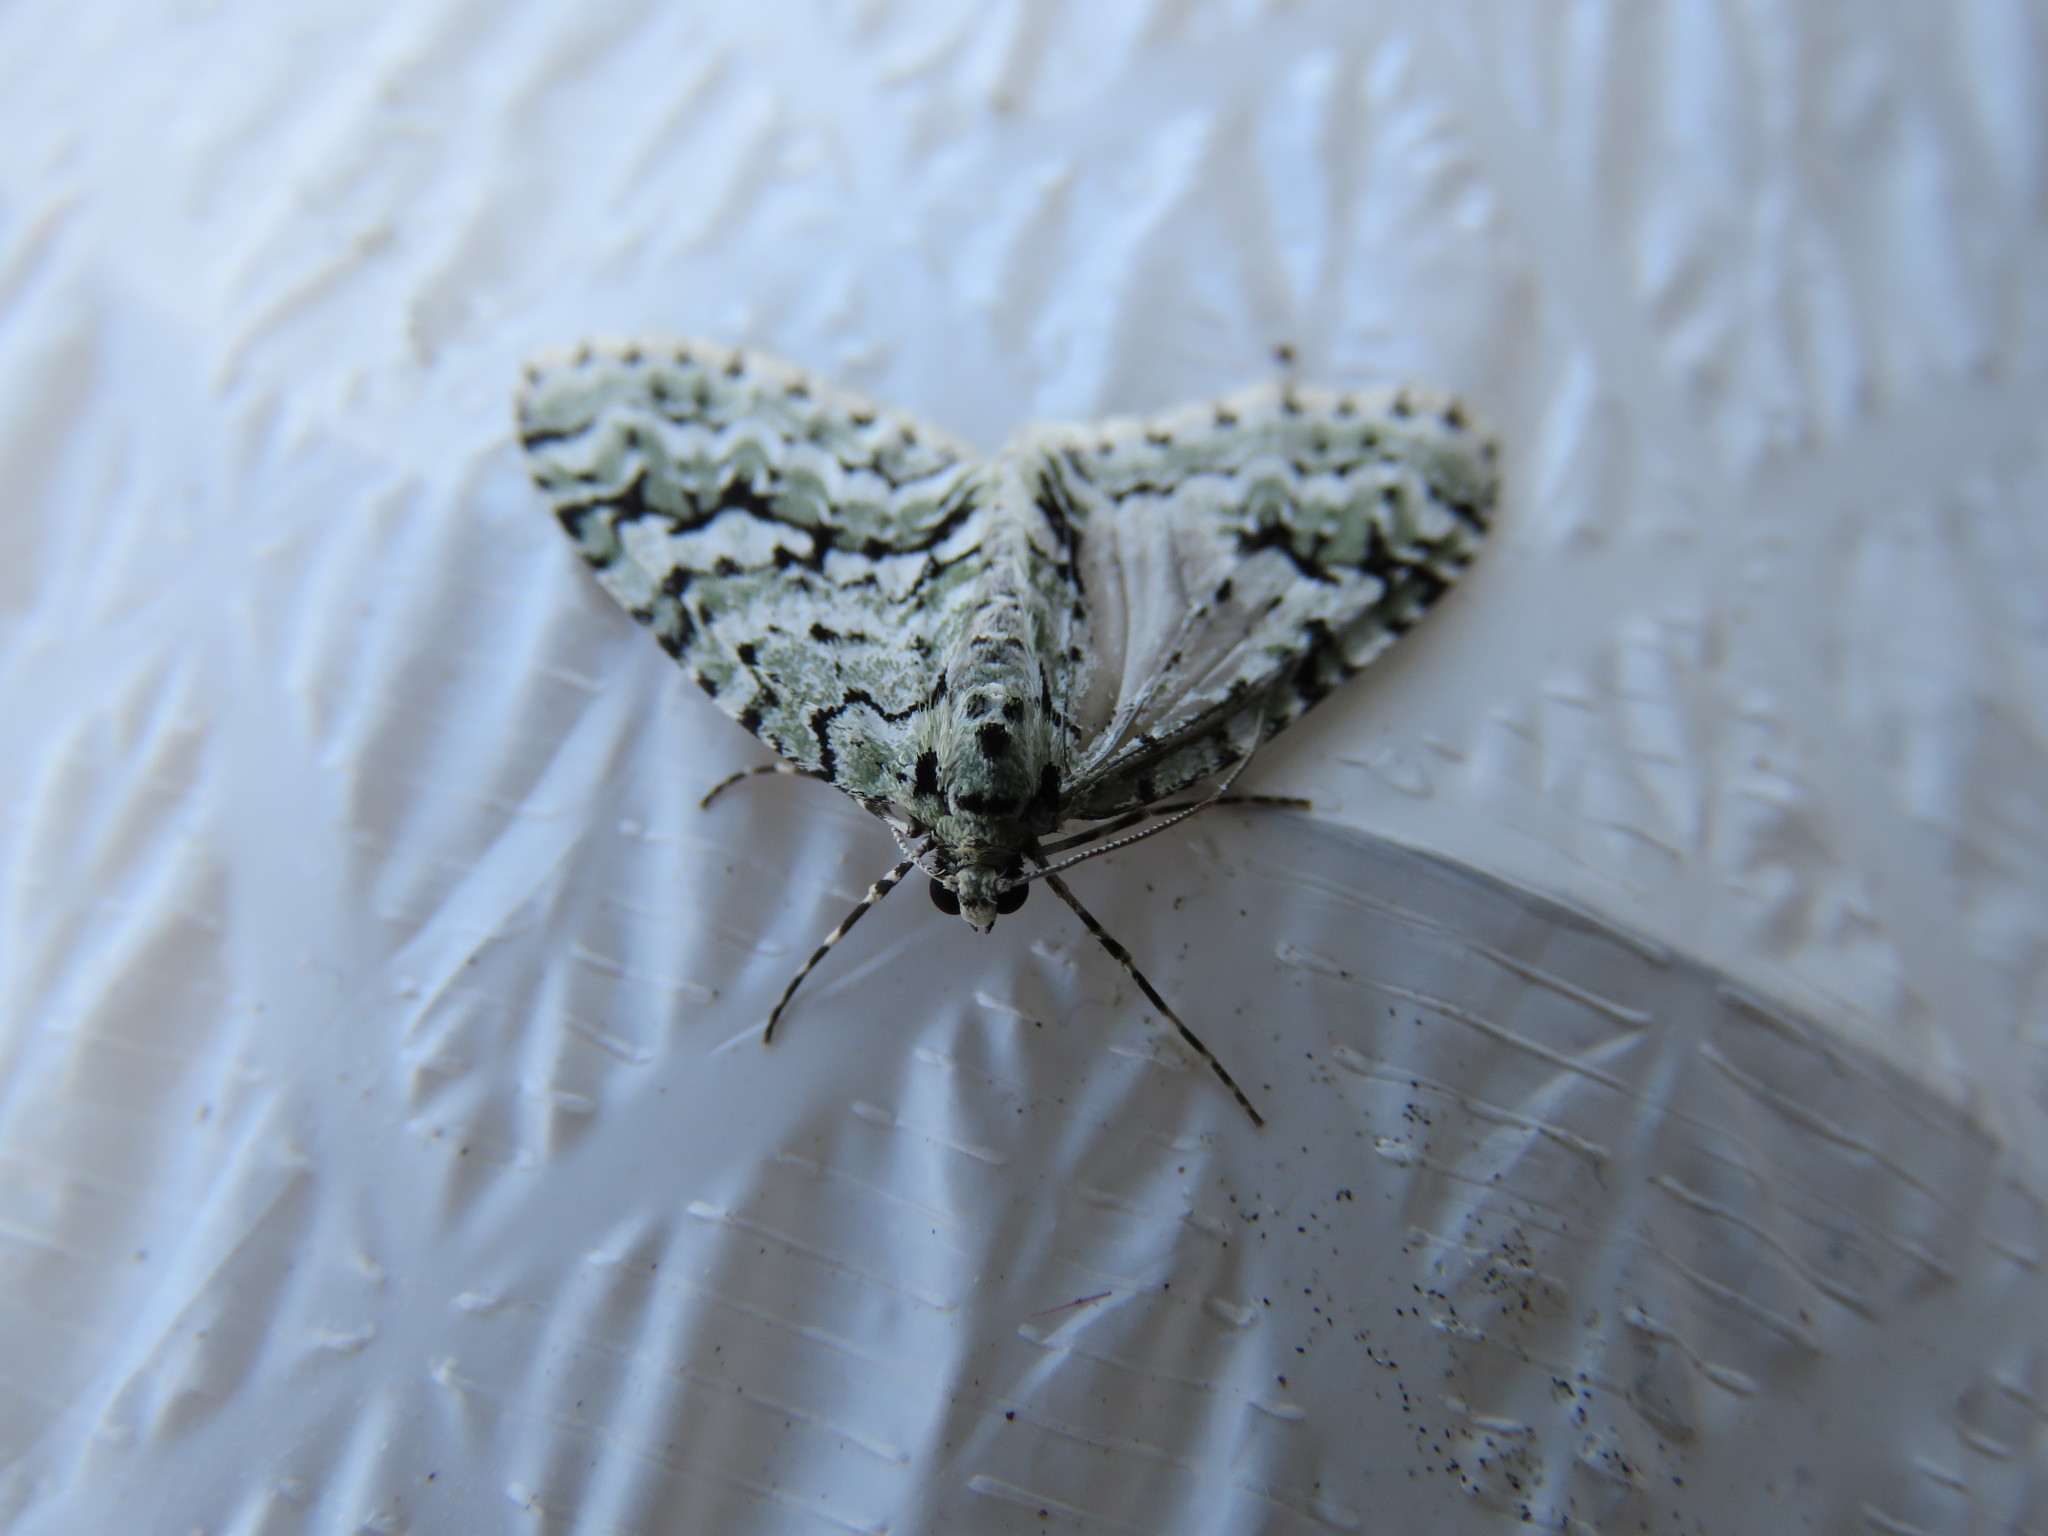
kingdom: Animalia
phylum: Arthropoda
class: Insecta
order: Lepidoptera
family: Geometridae
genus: Cladara
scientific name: Cladara atroliturata
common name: Scribbler
